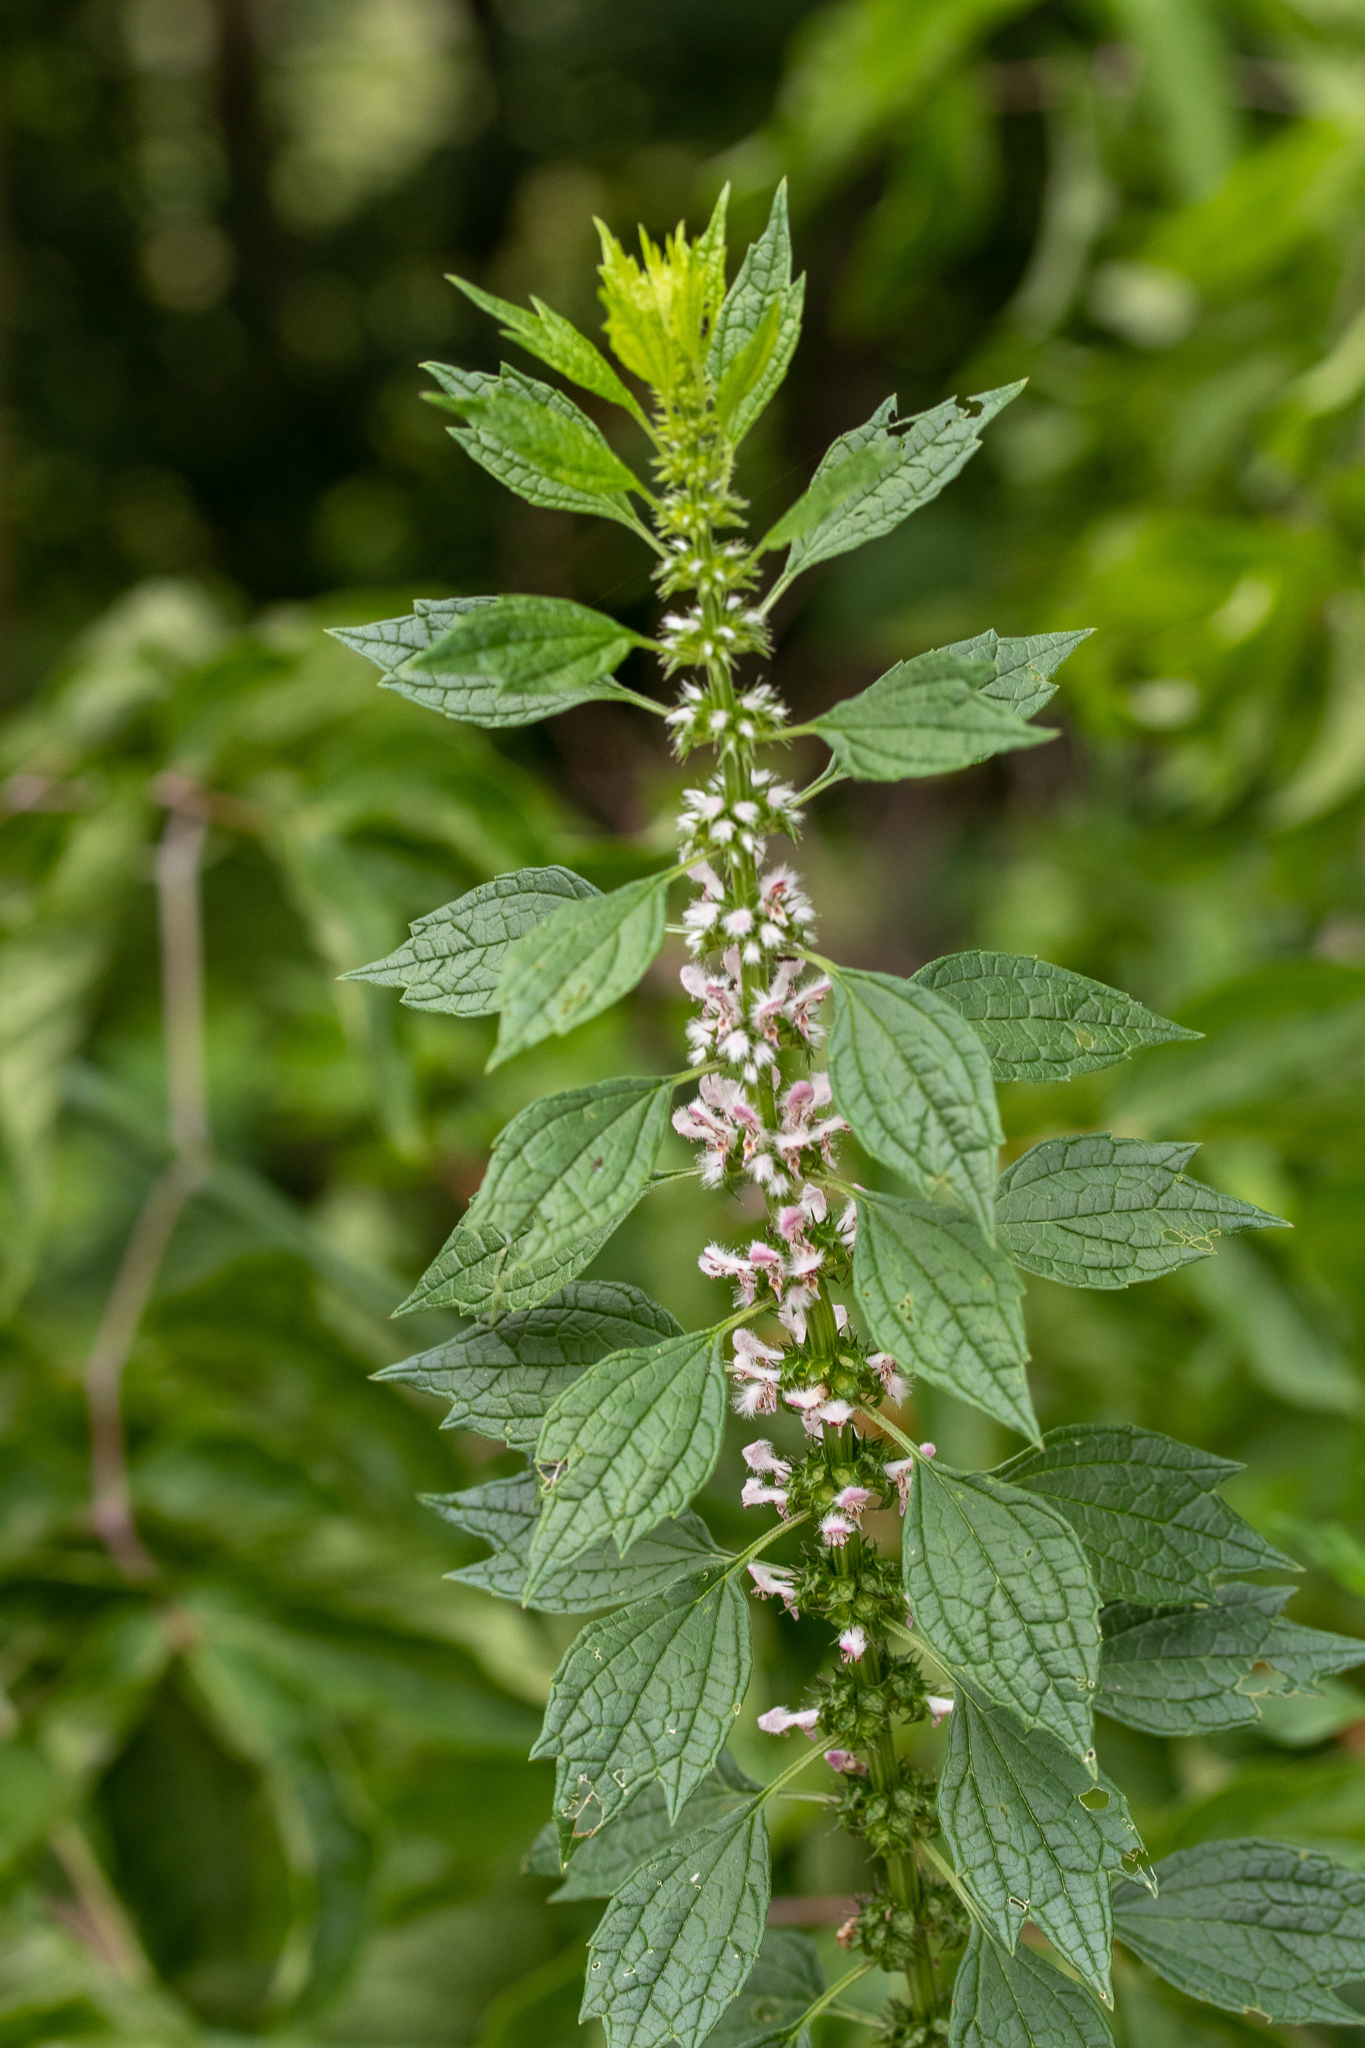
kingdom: Plantae
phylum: Tracheophyta
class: Magnoliopsida
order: Lamiales
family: Lamiaceae
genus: Leonurus
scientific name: Leonurus cardiaca
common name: Motherwort
